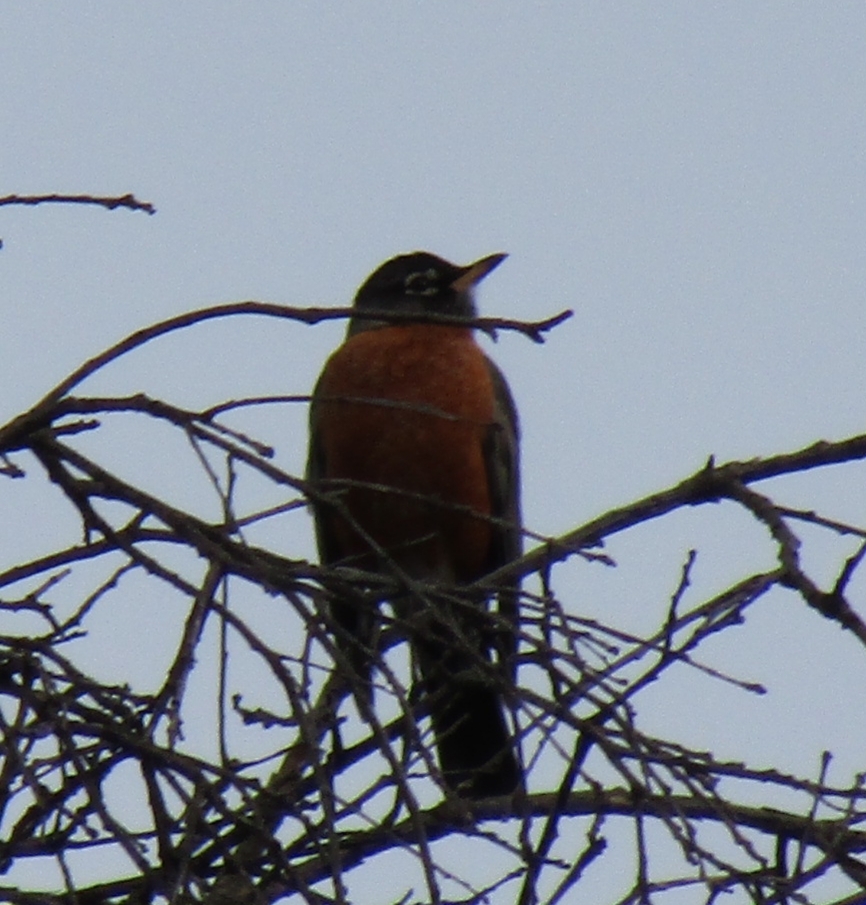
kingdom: Animalia
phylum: Chordata
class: Aves
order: Passeriformes
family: Turdidae
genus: Turdus
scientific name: Turdus migratorius
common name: American robin
